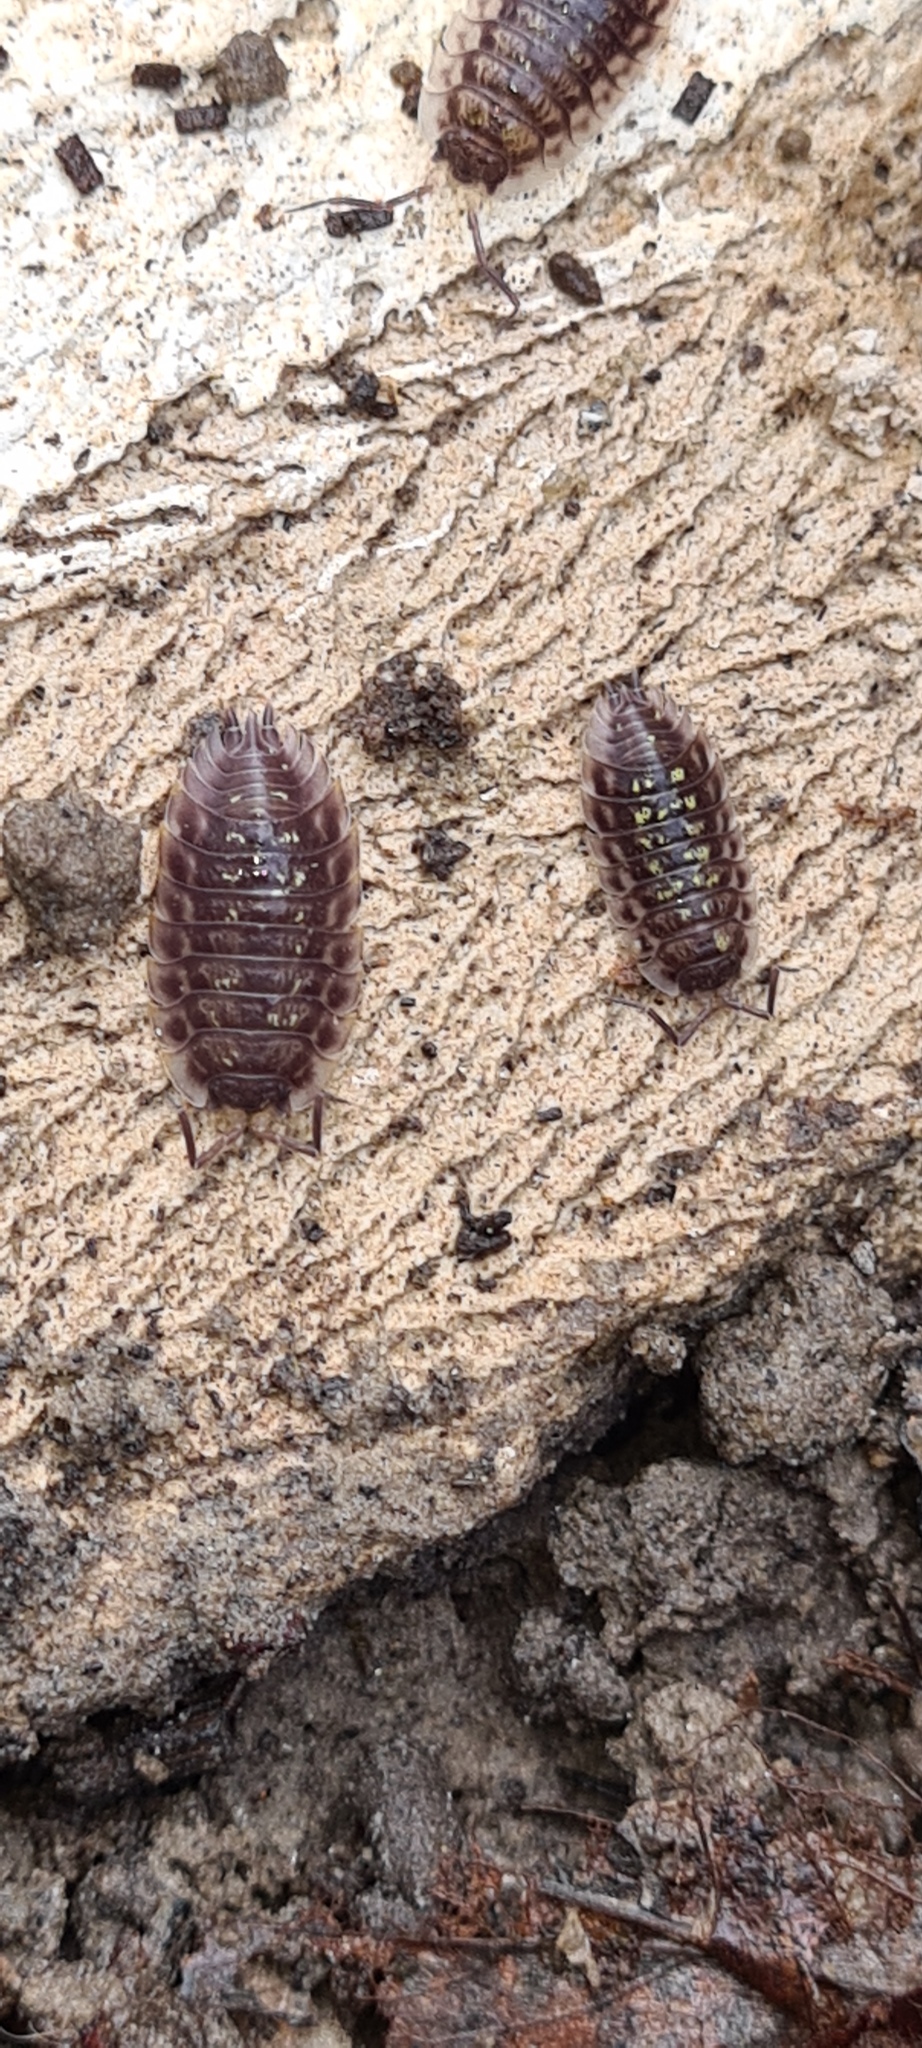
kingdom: Animalia
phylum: Arthropoda
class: Malacostraca
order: Isopoda
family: Oniscidae
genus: Oniscus
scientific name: Oniscus asellus
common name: Common shiny woodlouse
